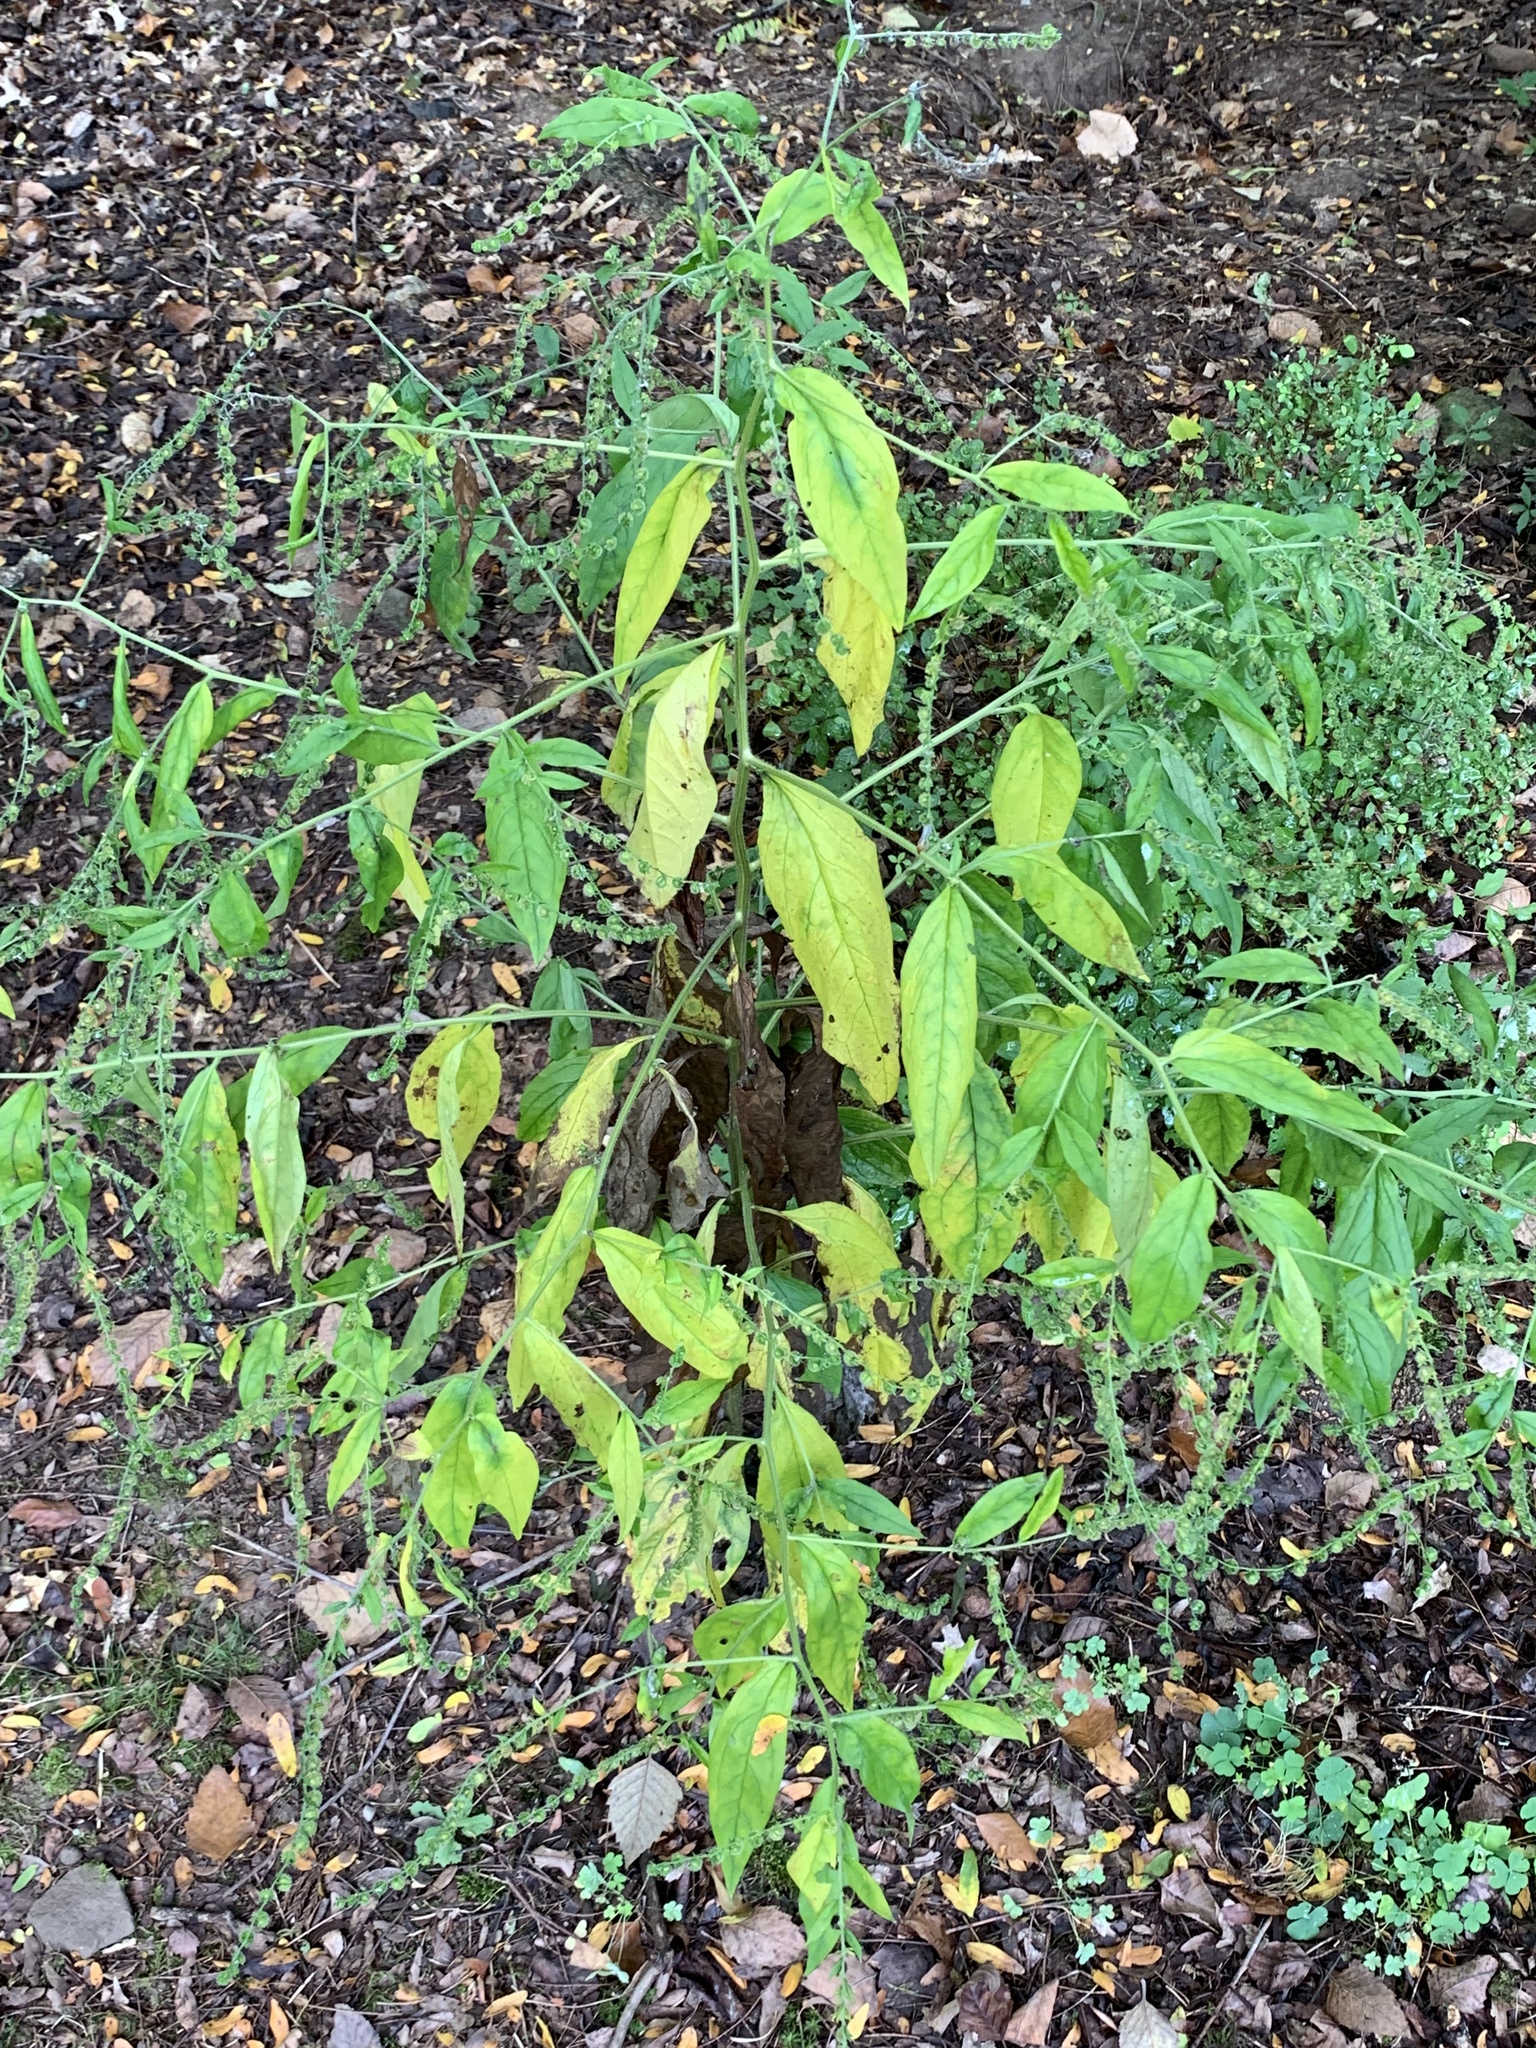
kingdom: Plantae
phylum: Tracheophyta
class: Magnoliopsida
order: Boraginales
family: Boraginaceae
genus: Hackelia
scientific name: Hackelia virginiana
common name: Beggar's-lice
